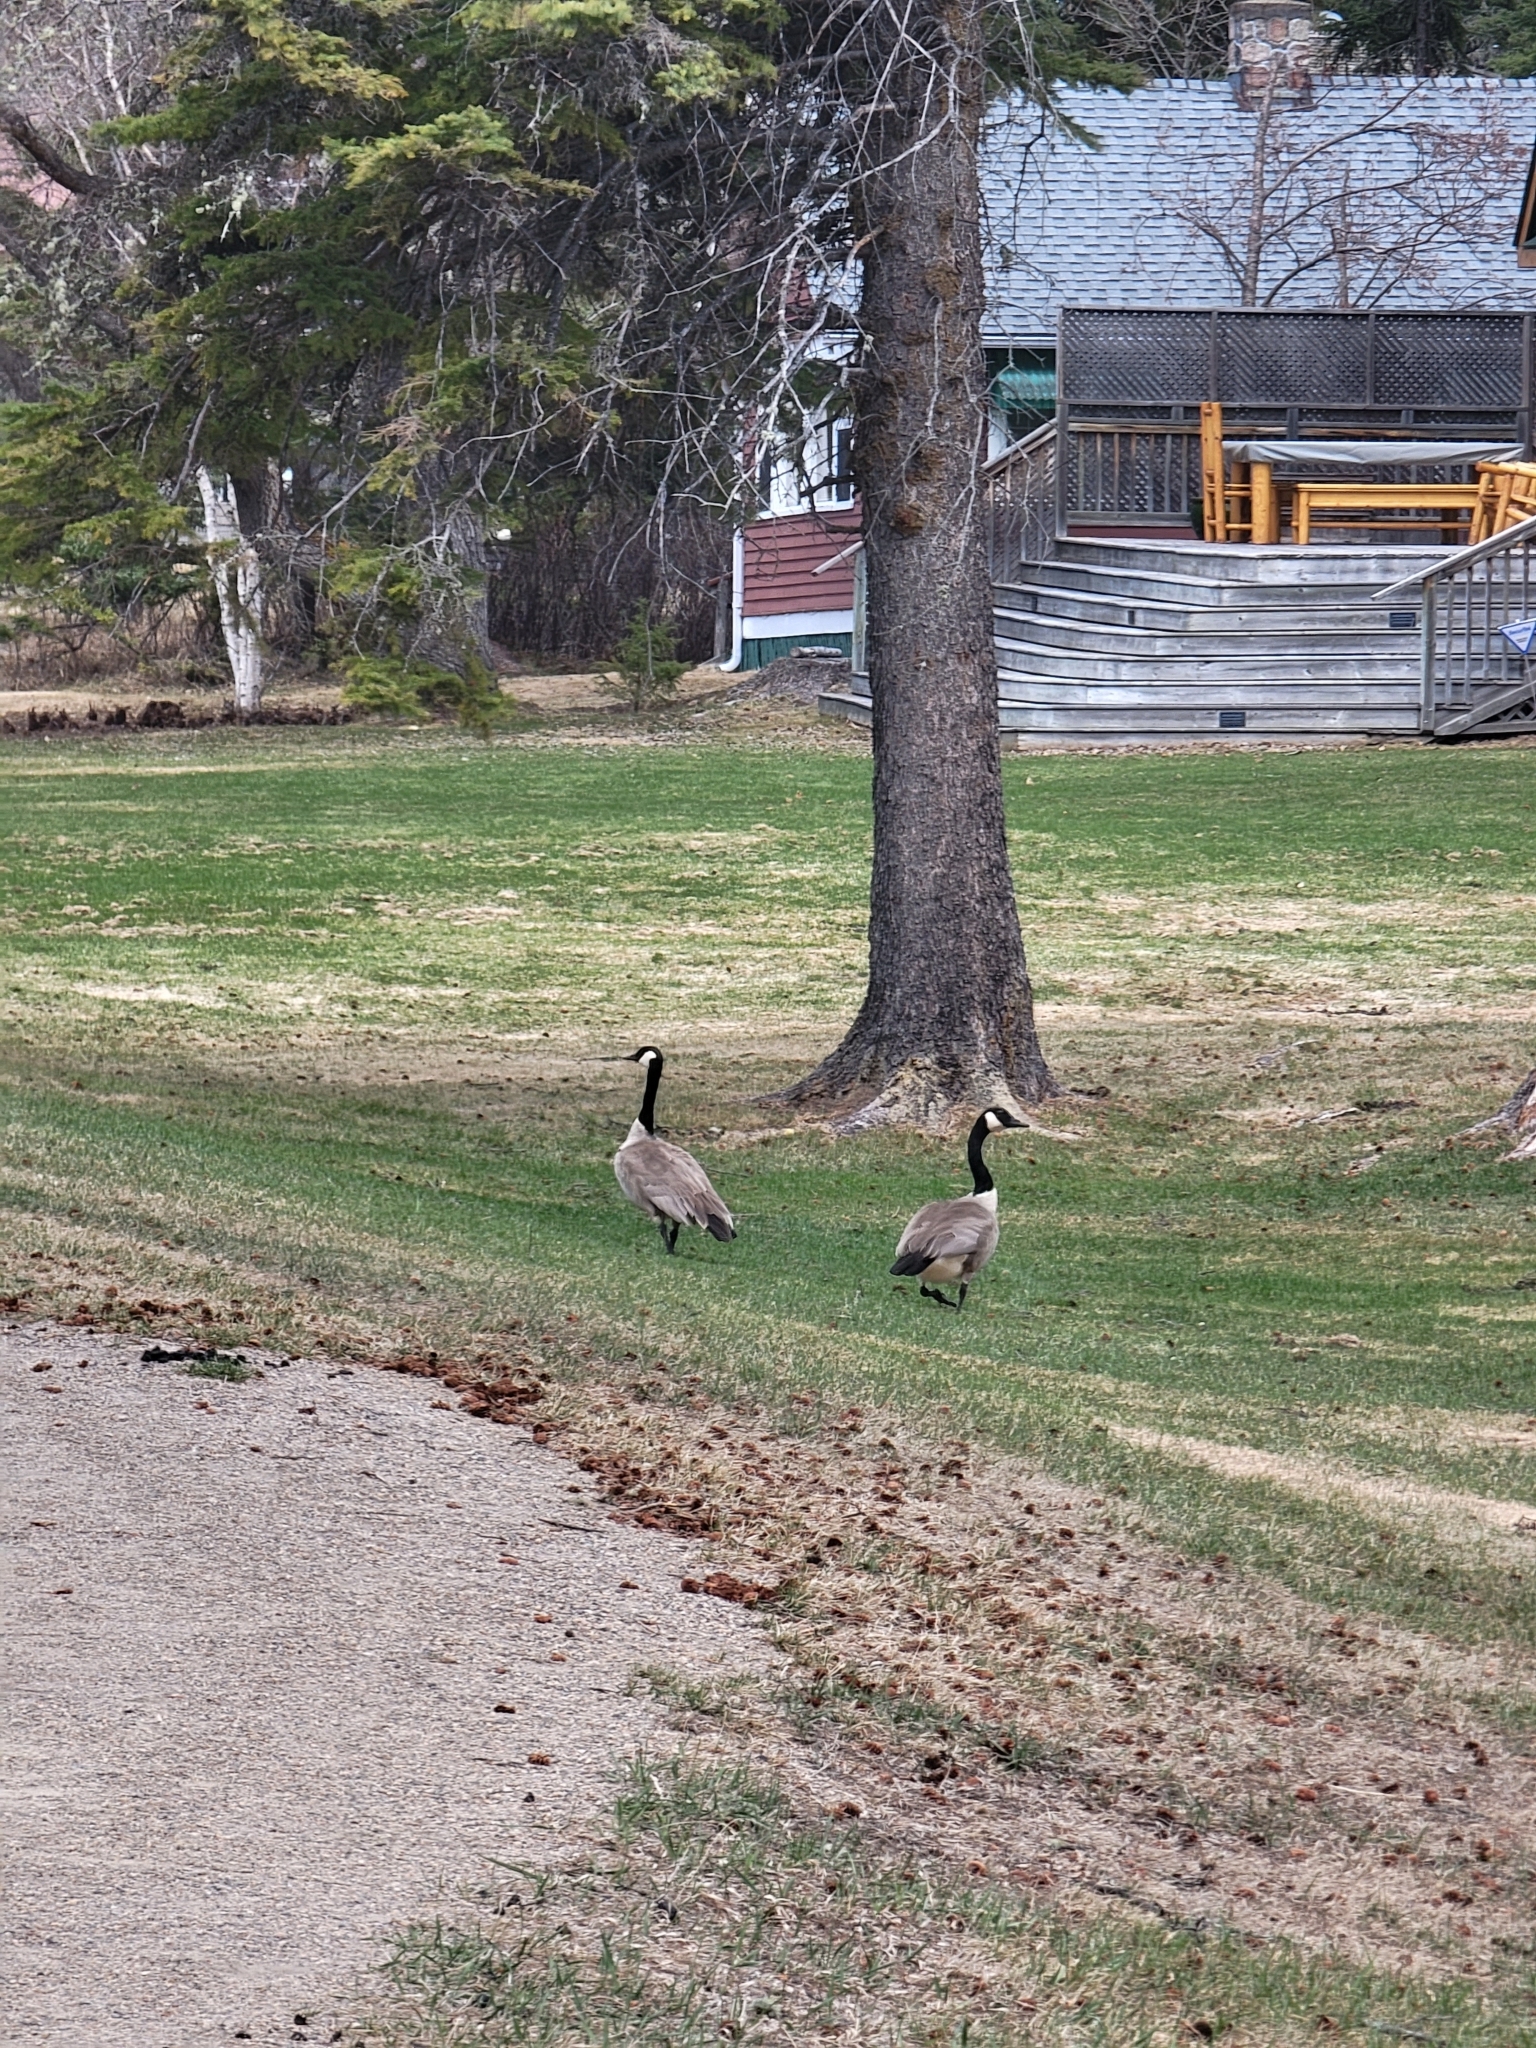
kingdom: Animalia
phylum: Chordata
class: Aves
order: Anseriformes
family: Anatidae
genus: Branta
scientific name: Branta canadensis
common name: Canada goose
